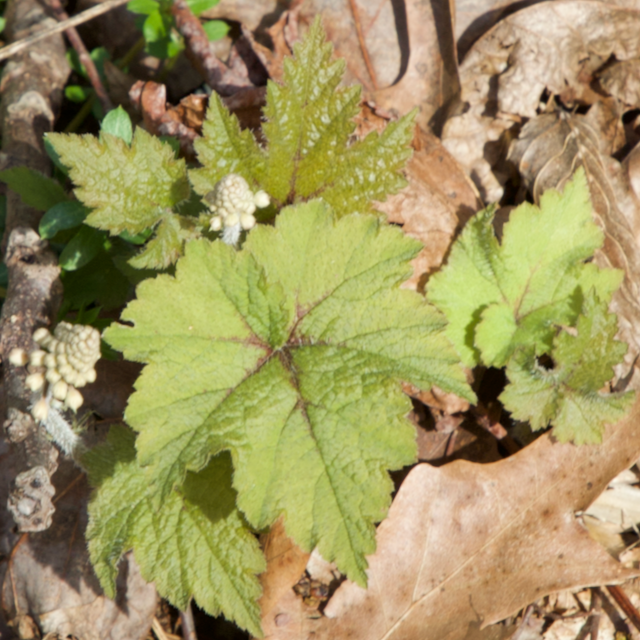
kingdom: Plantae
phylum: Tracheophyta
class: Magnoliopsida
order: Saxifragales
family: Saxifragaceae
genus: Tiarella
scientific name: Tiarella stolonifera
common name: Stoloniferous foamflower
